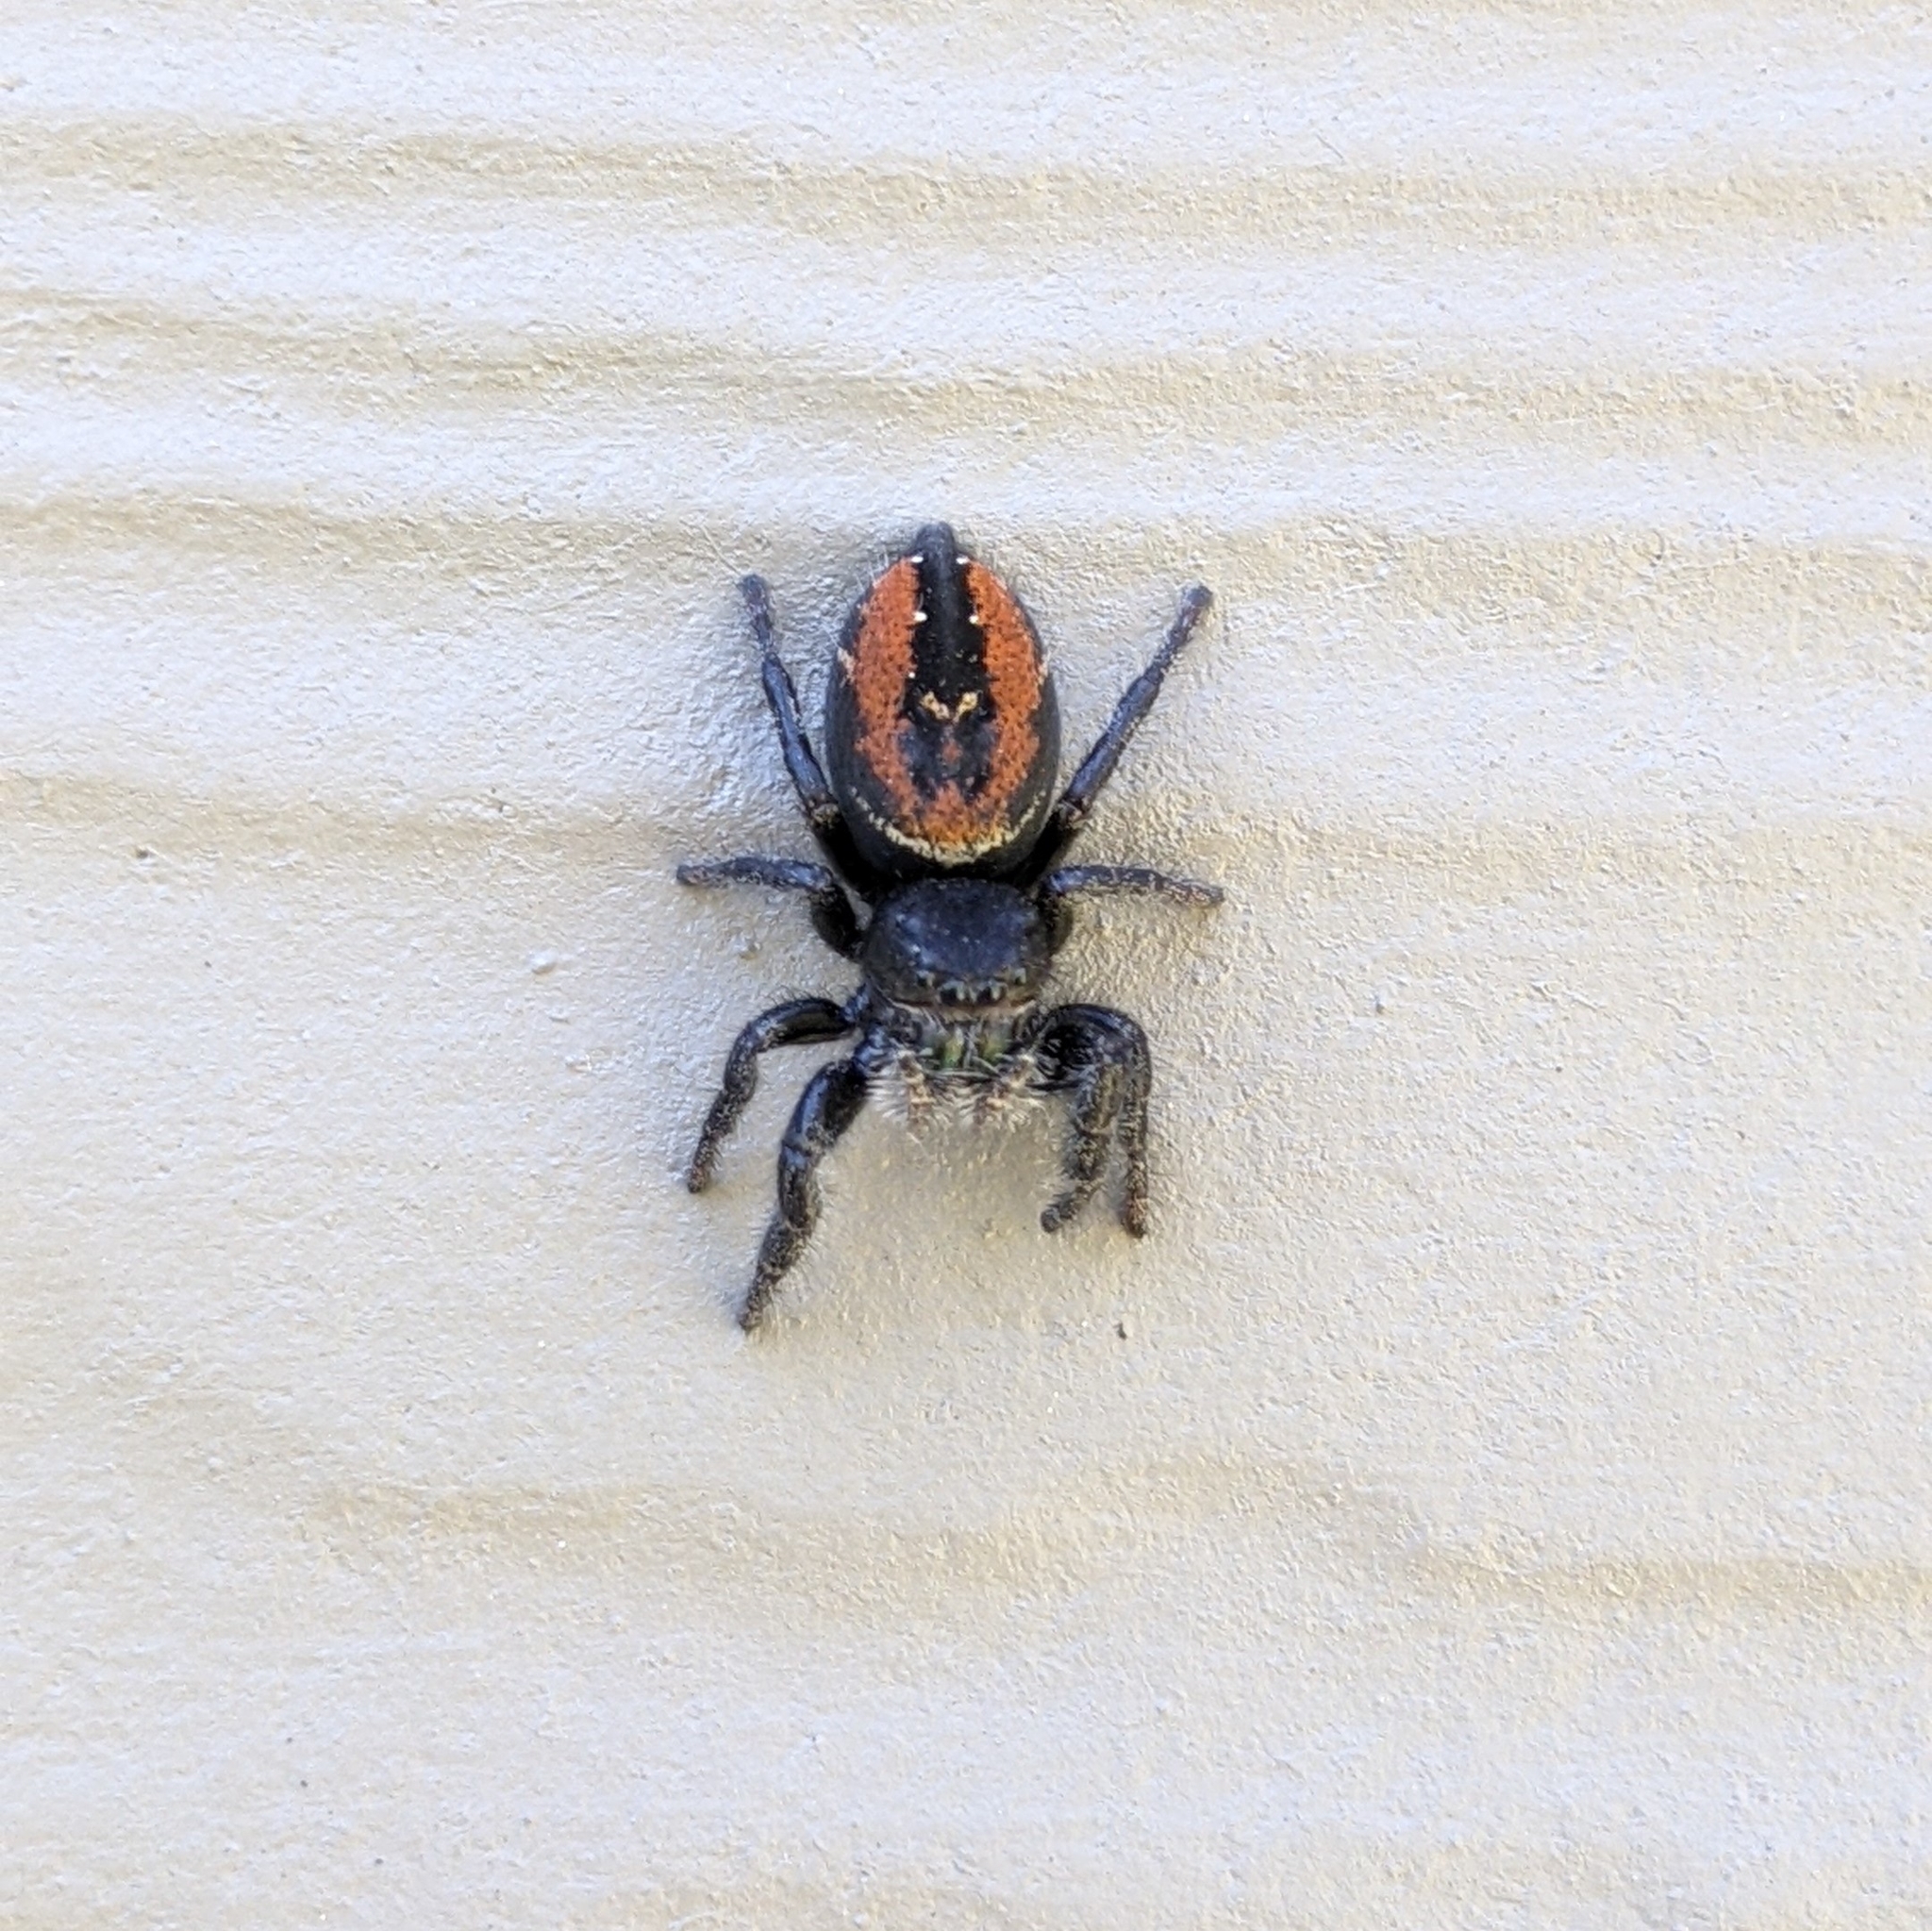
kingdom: Animalia
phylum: Arthropoda
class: Arachnida
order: Araneae
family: Salticidae
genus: Phidippus
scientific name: Phidippus johnsoni
